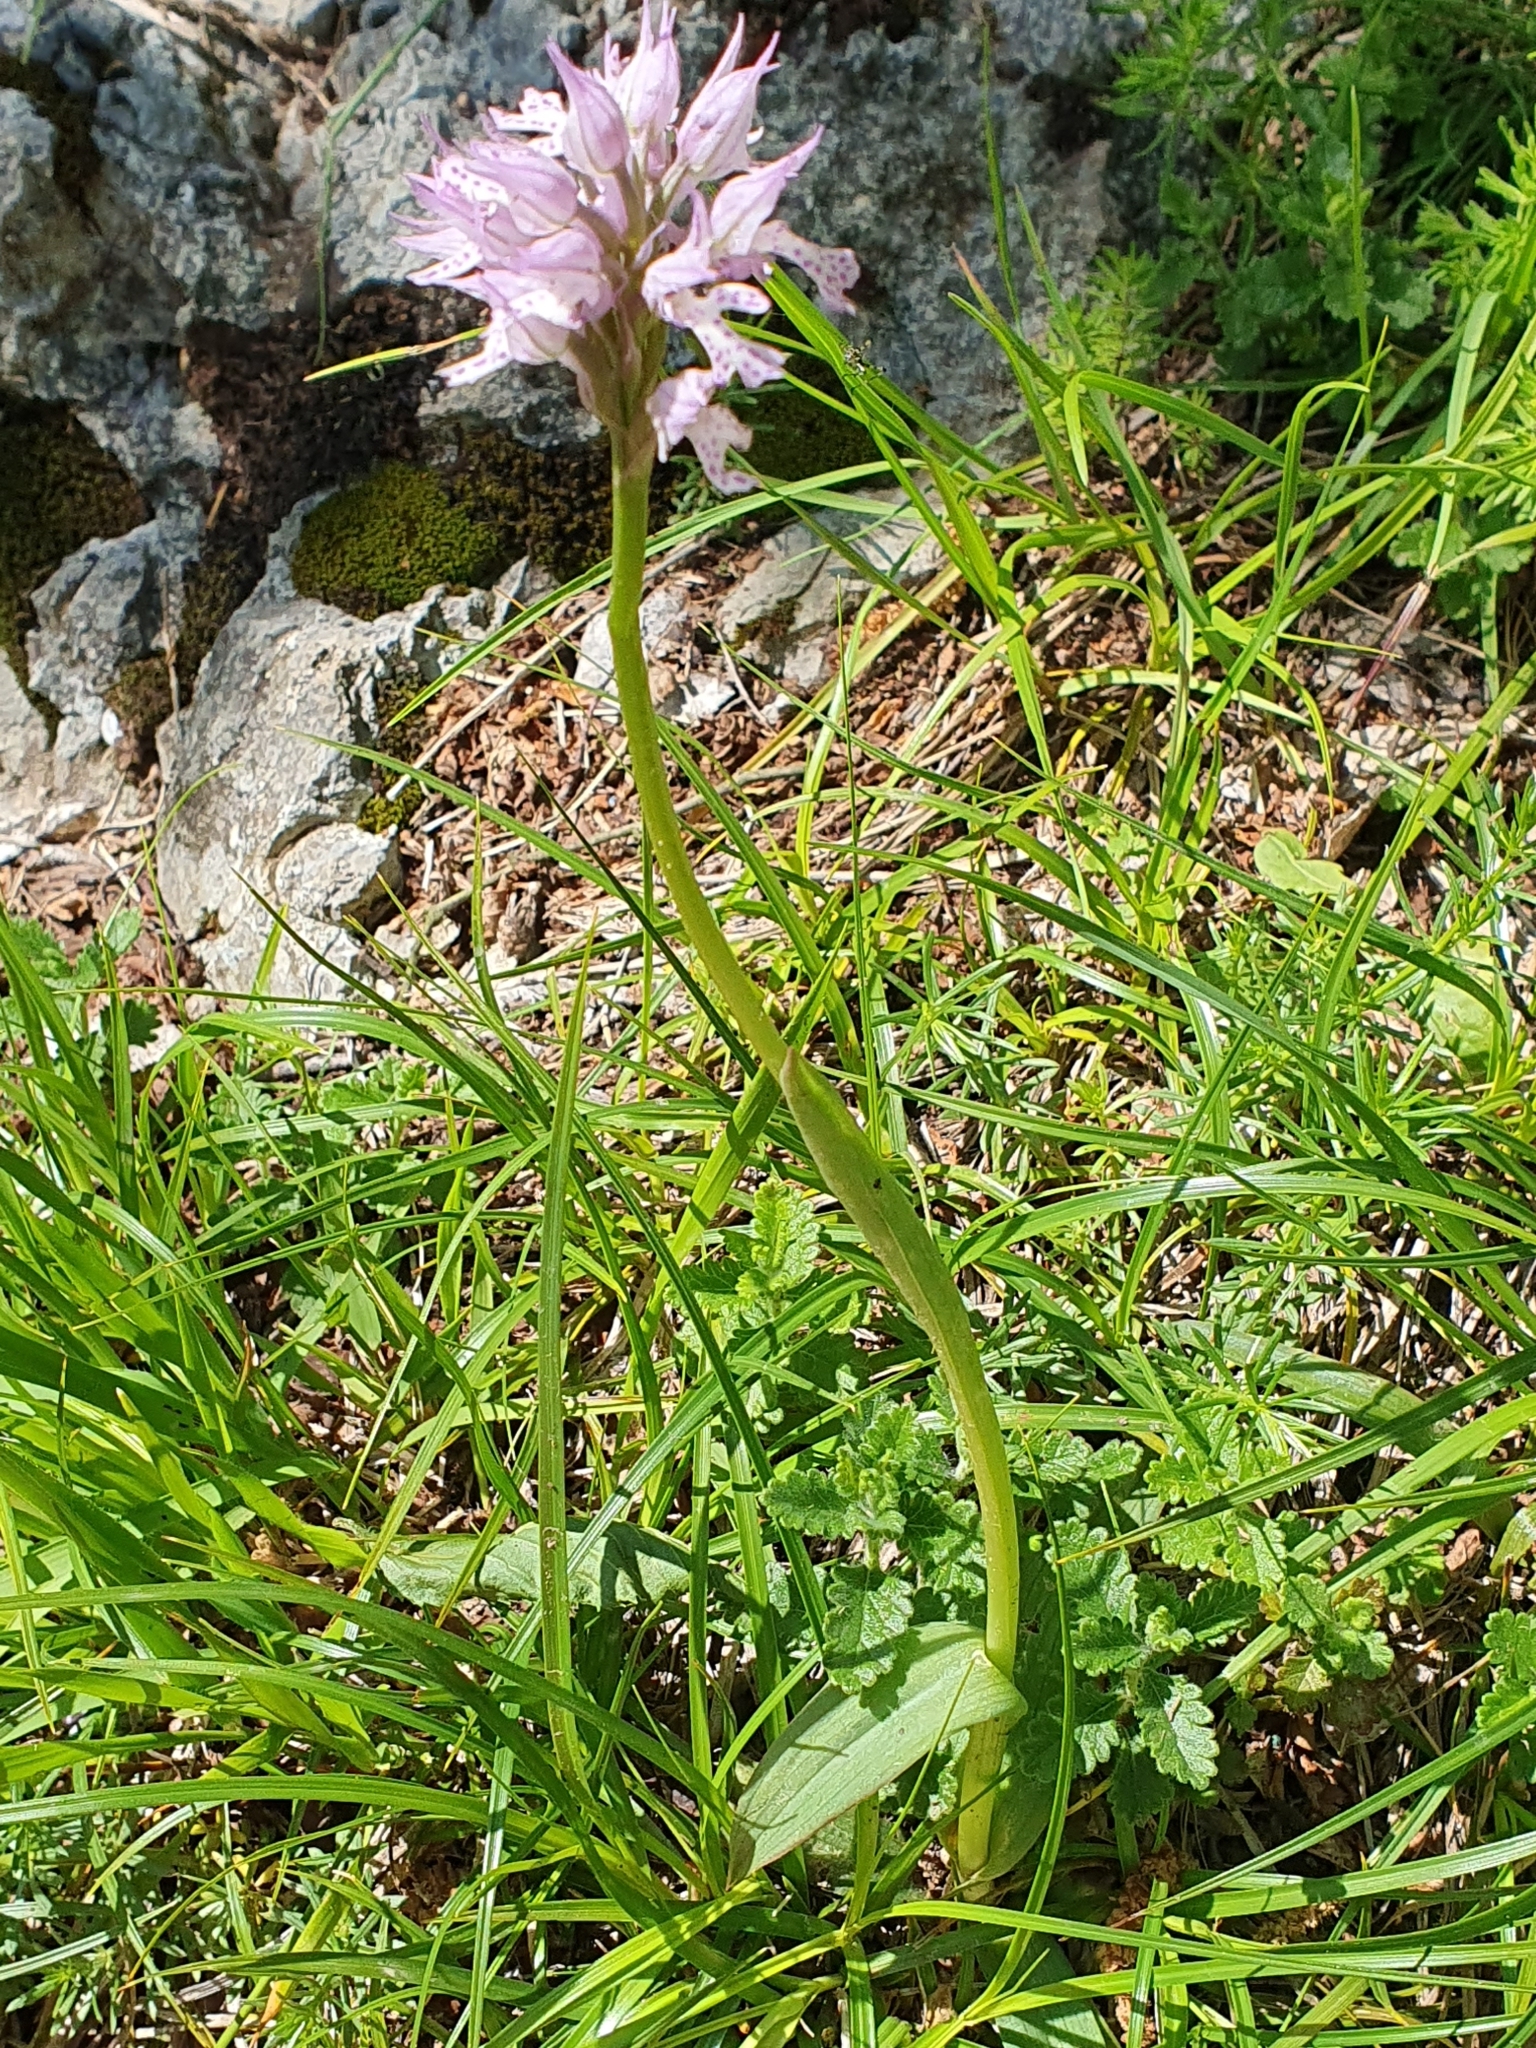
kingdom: Plantae
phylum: Tracheophyta
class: Liliopsida
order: Asparagales
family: Orchidaceae
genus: Neotinea
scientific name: Neotinea tridentata
